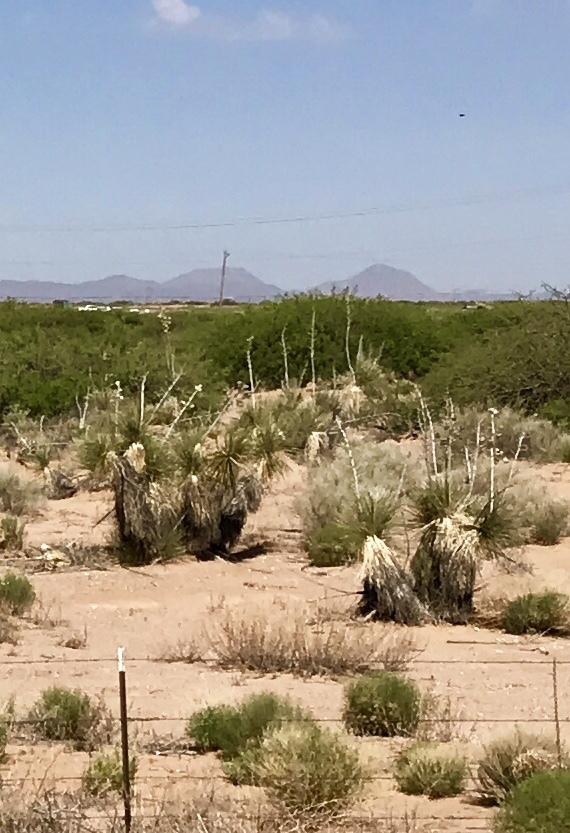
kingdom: Plantae
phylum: Tracheophyta
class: Liliopsida
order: Asparagales
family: Asparagaceae
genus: Yucca
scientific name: Yucca elata
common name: Palmella
